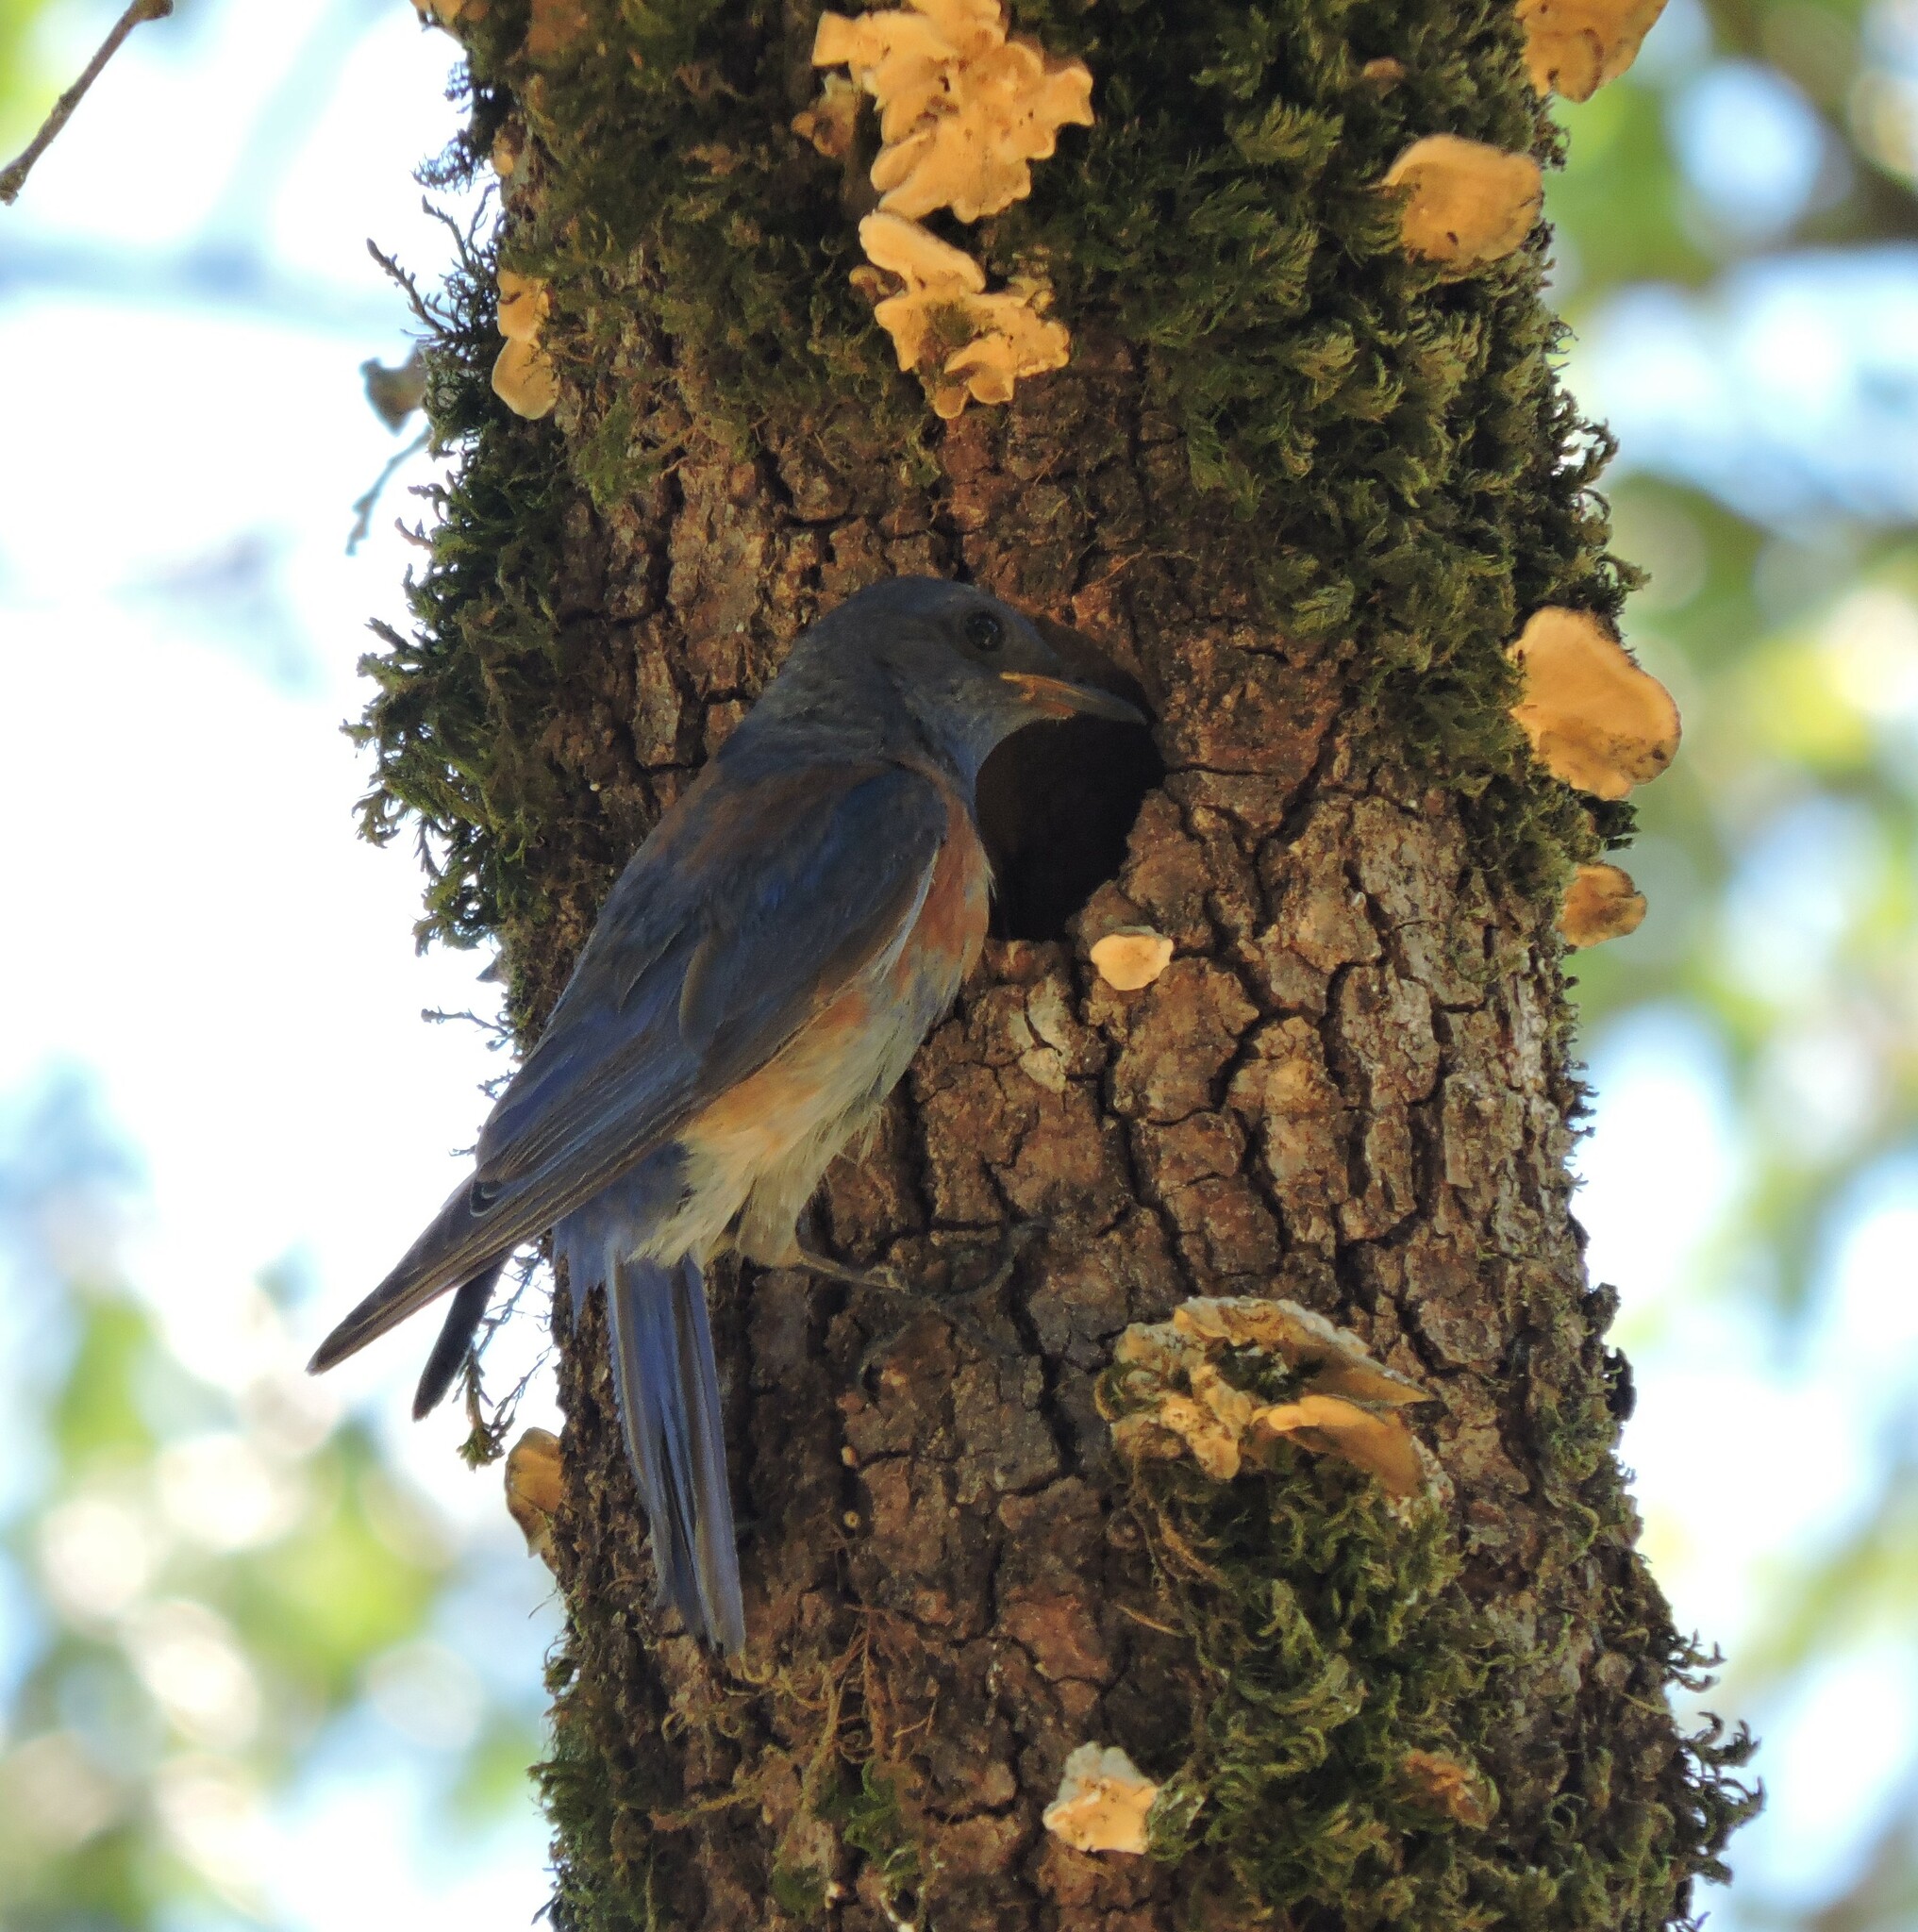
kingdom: Animalia
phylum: Chordata
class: Aves
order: Passeriformes
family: Turdidae
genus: Sialia
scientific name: Sialia mexicana
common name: Western bluebird
